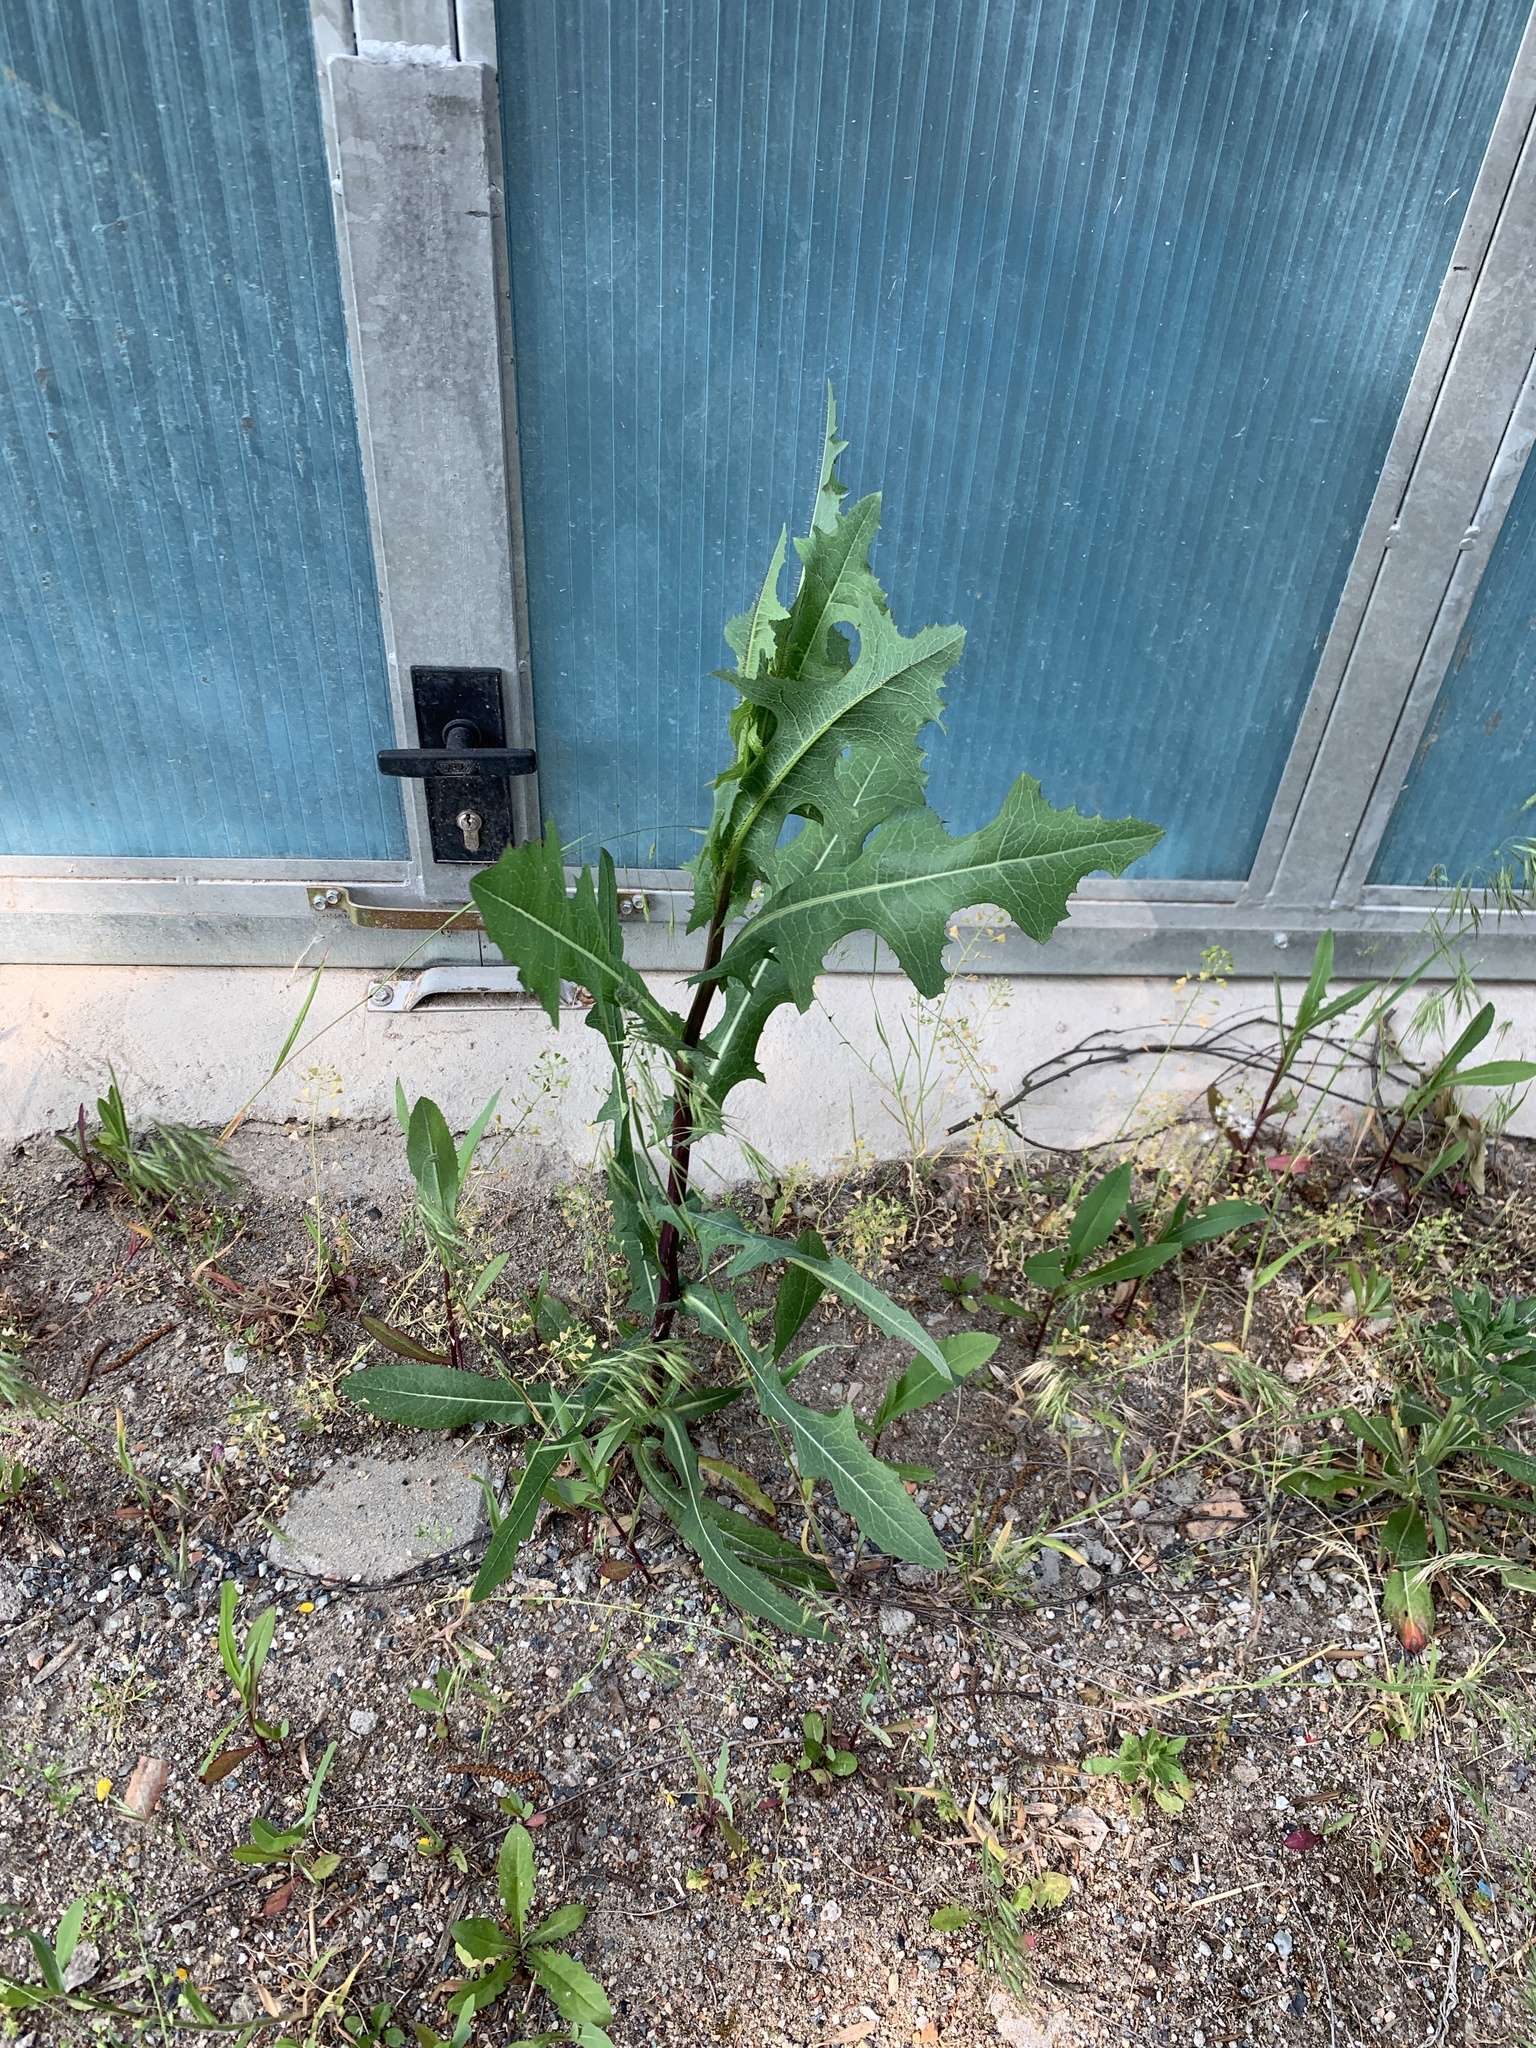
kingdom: Plantae
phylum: Tracheophyta
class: Magnoliopsida
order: Asterales
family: Asteraceae
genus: Lactuca
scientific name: Lactuca serriola
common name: Prickly lettuce
